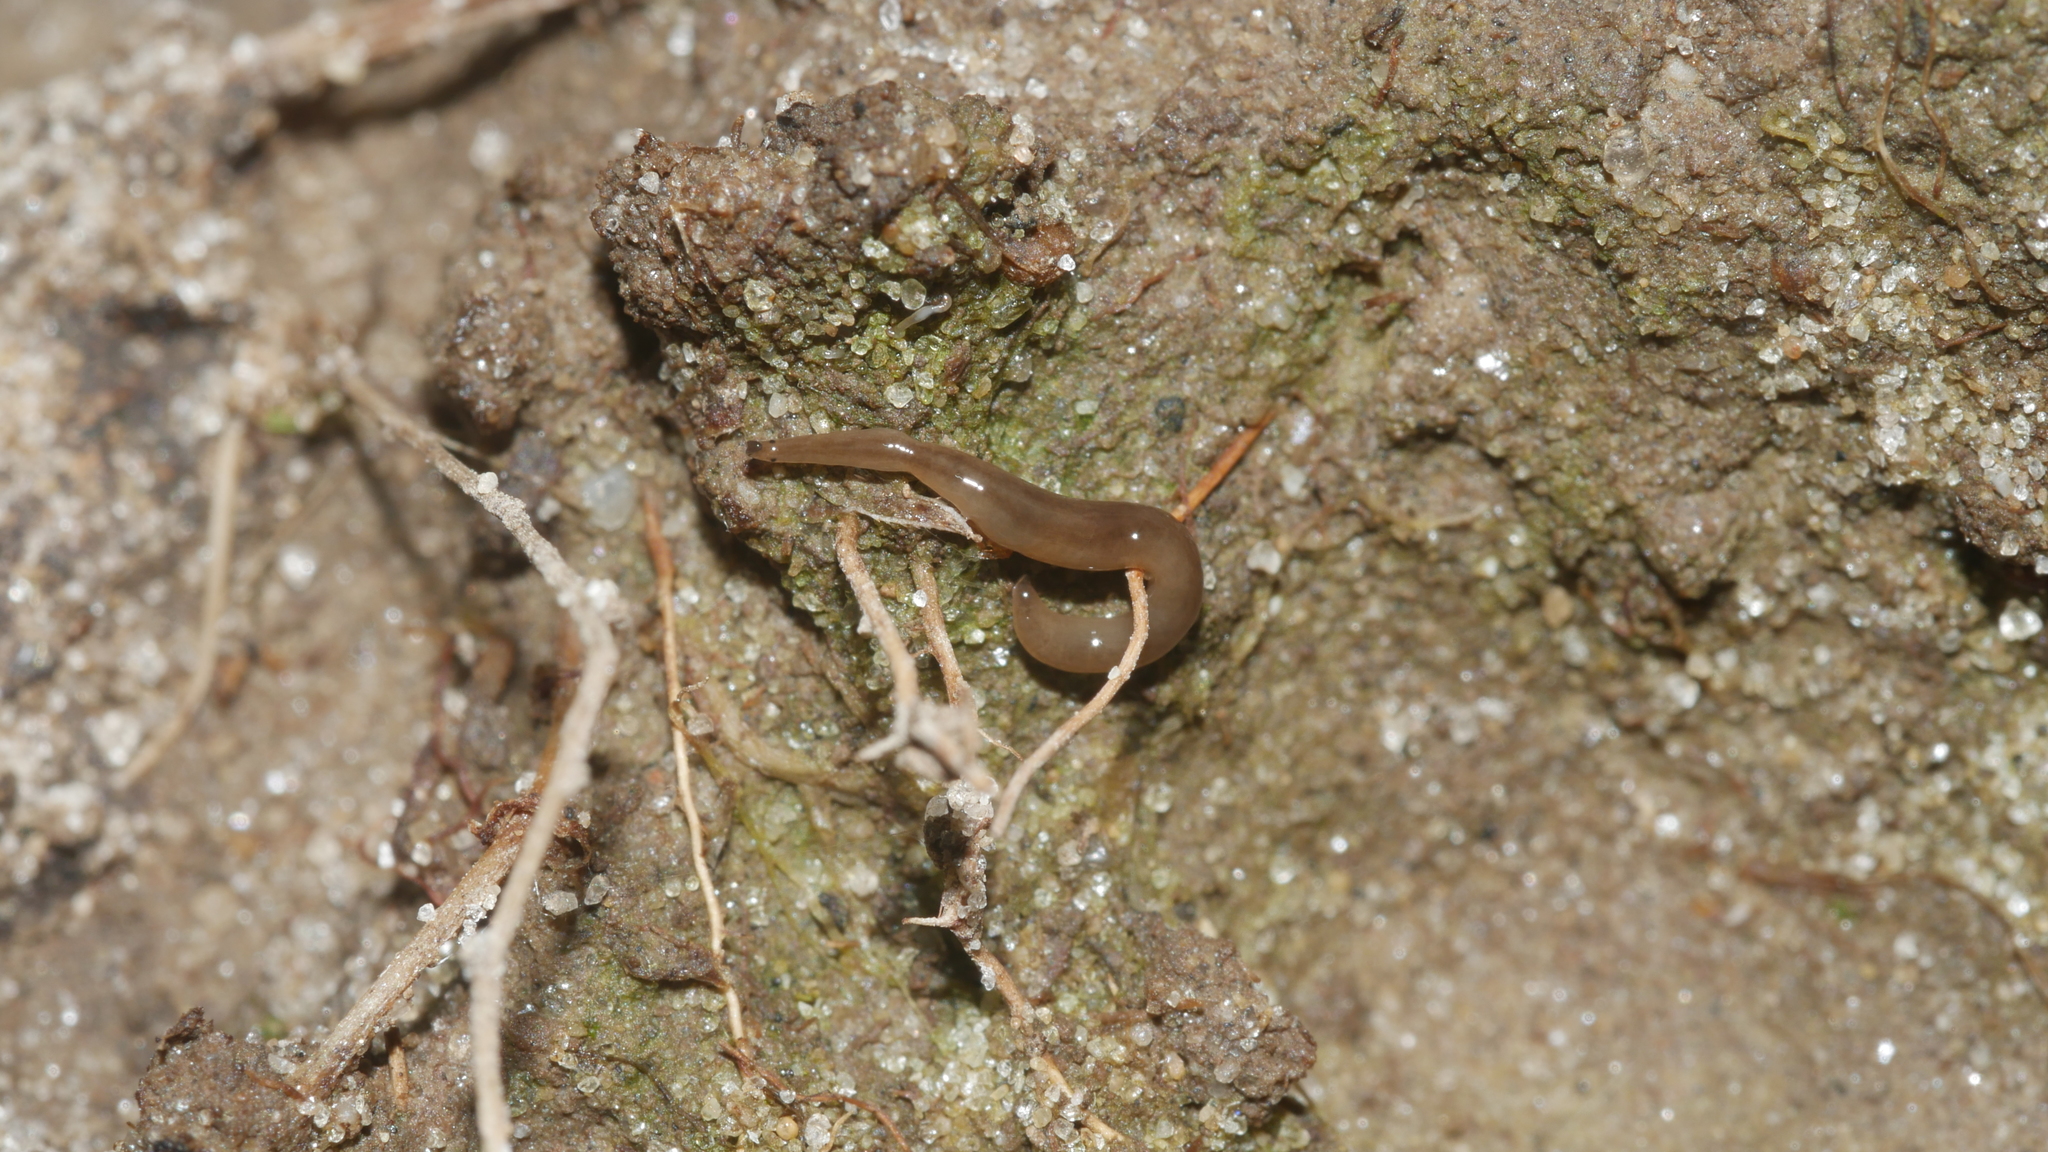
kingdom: Animalia
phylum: Platyhelminthes
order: Tricladida
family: Geoplanidae
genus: Rhynchodemus
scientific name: Rhynchodemus sylvaticus
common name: A flatworm
